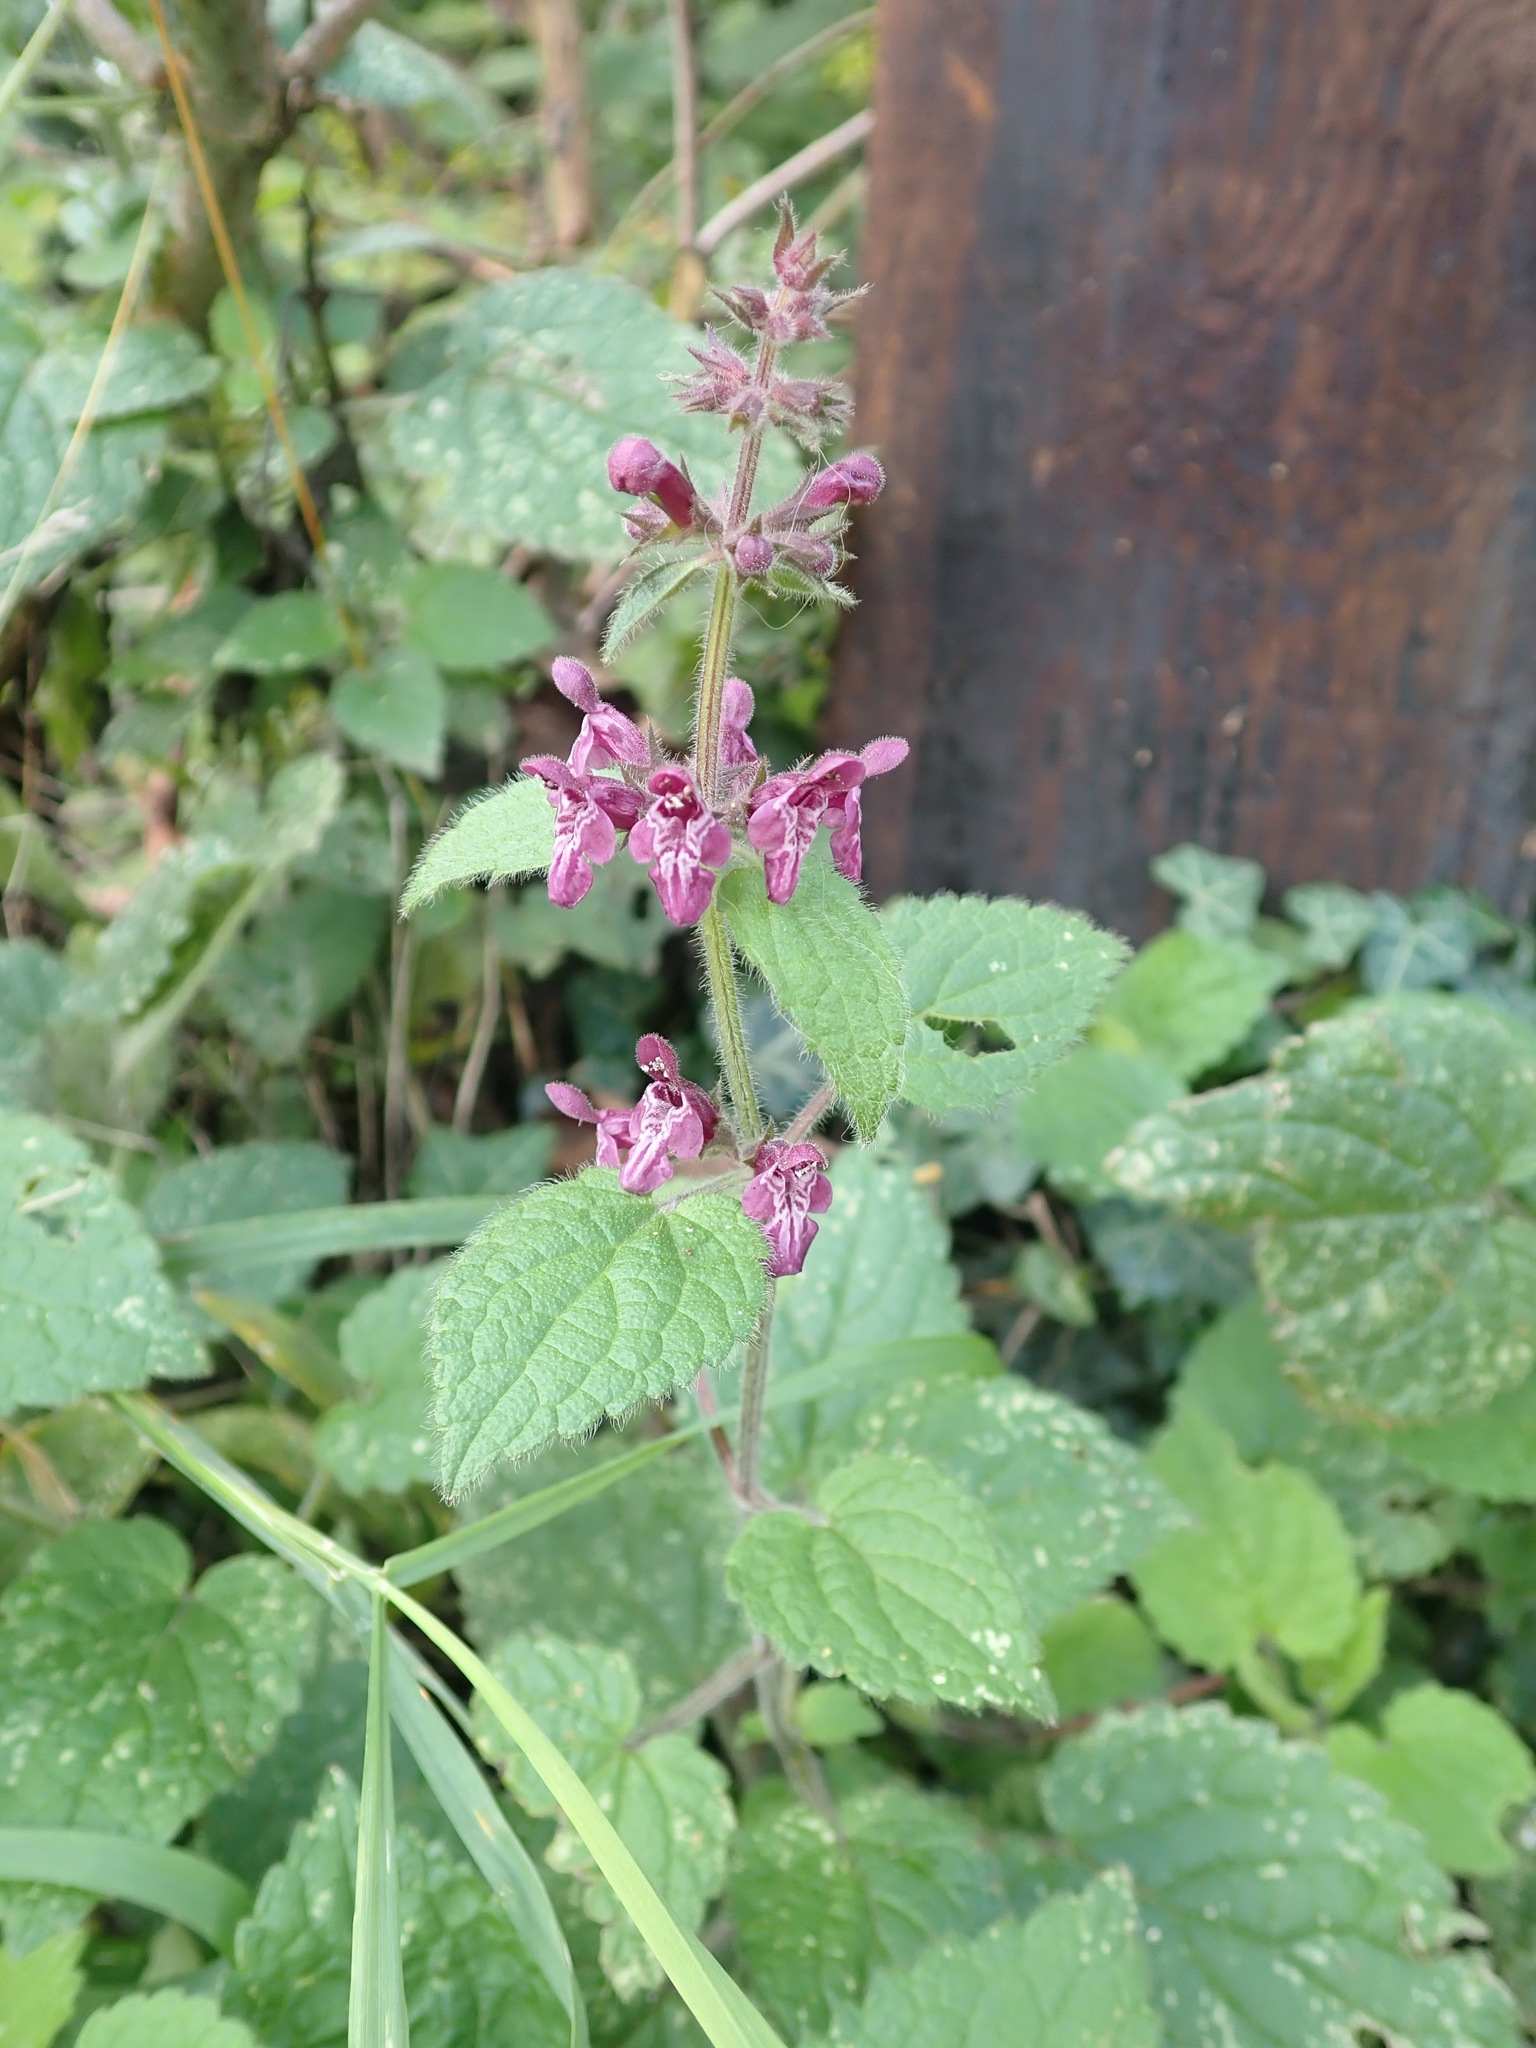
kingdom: Plantae
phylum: Tracheophyta
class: Magnoliopsida
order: Lamiales
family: Lamiaceae
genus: Stachys
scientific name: Stachys sylvatica
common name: Hedge woundwort
